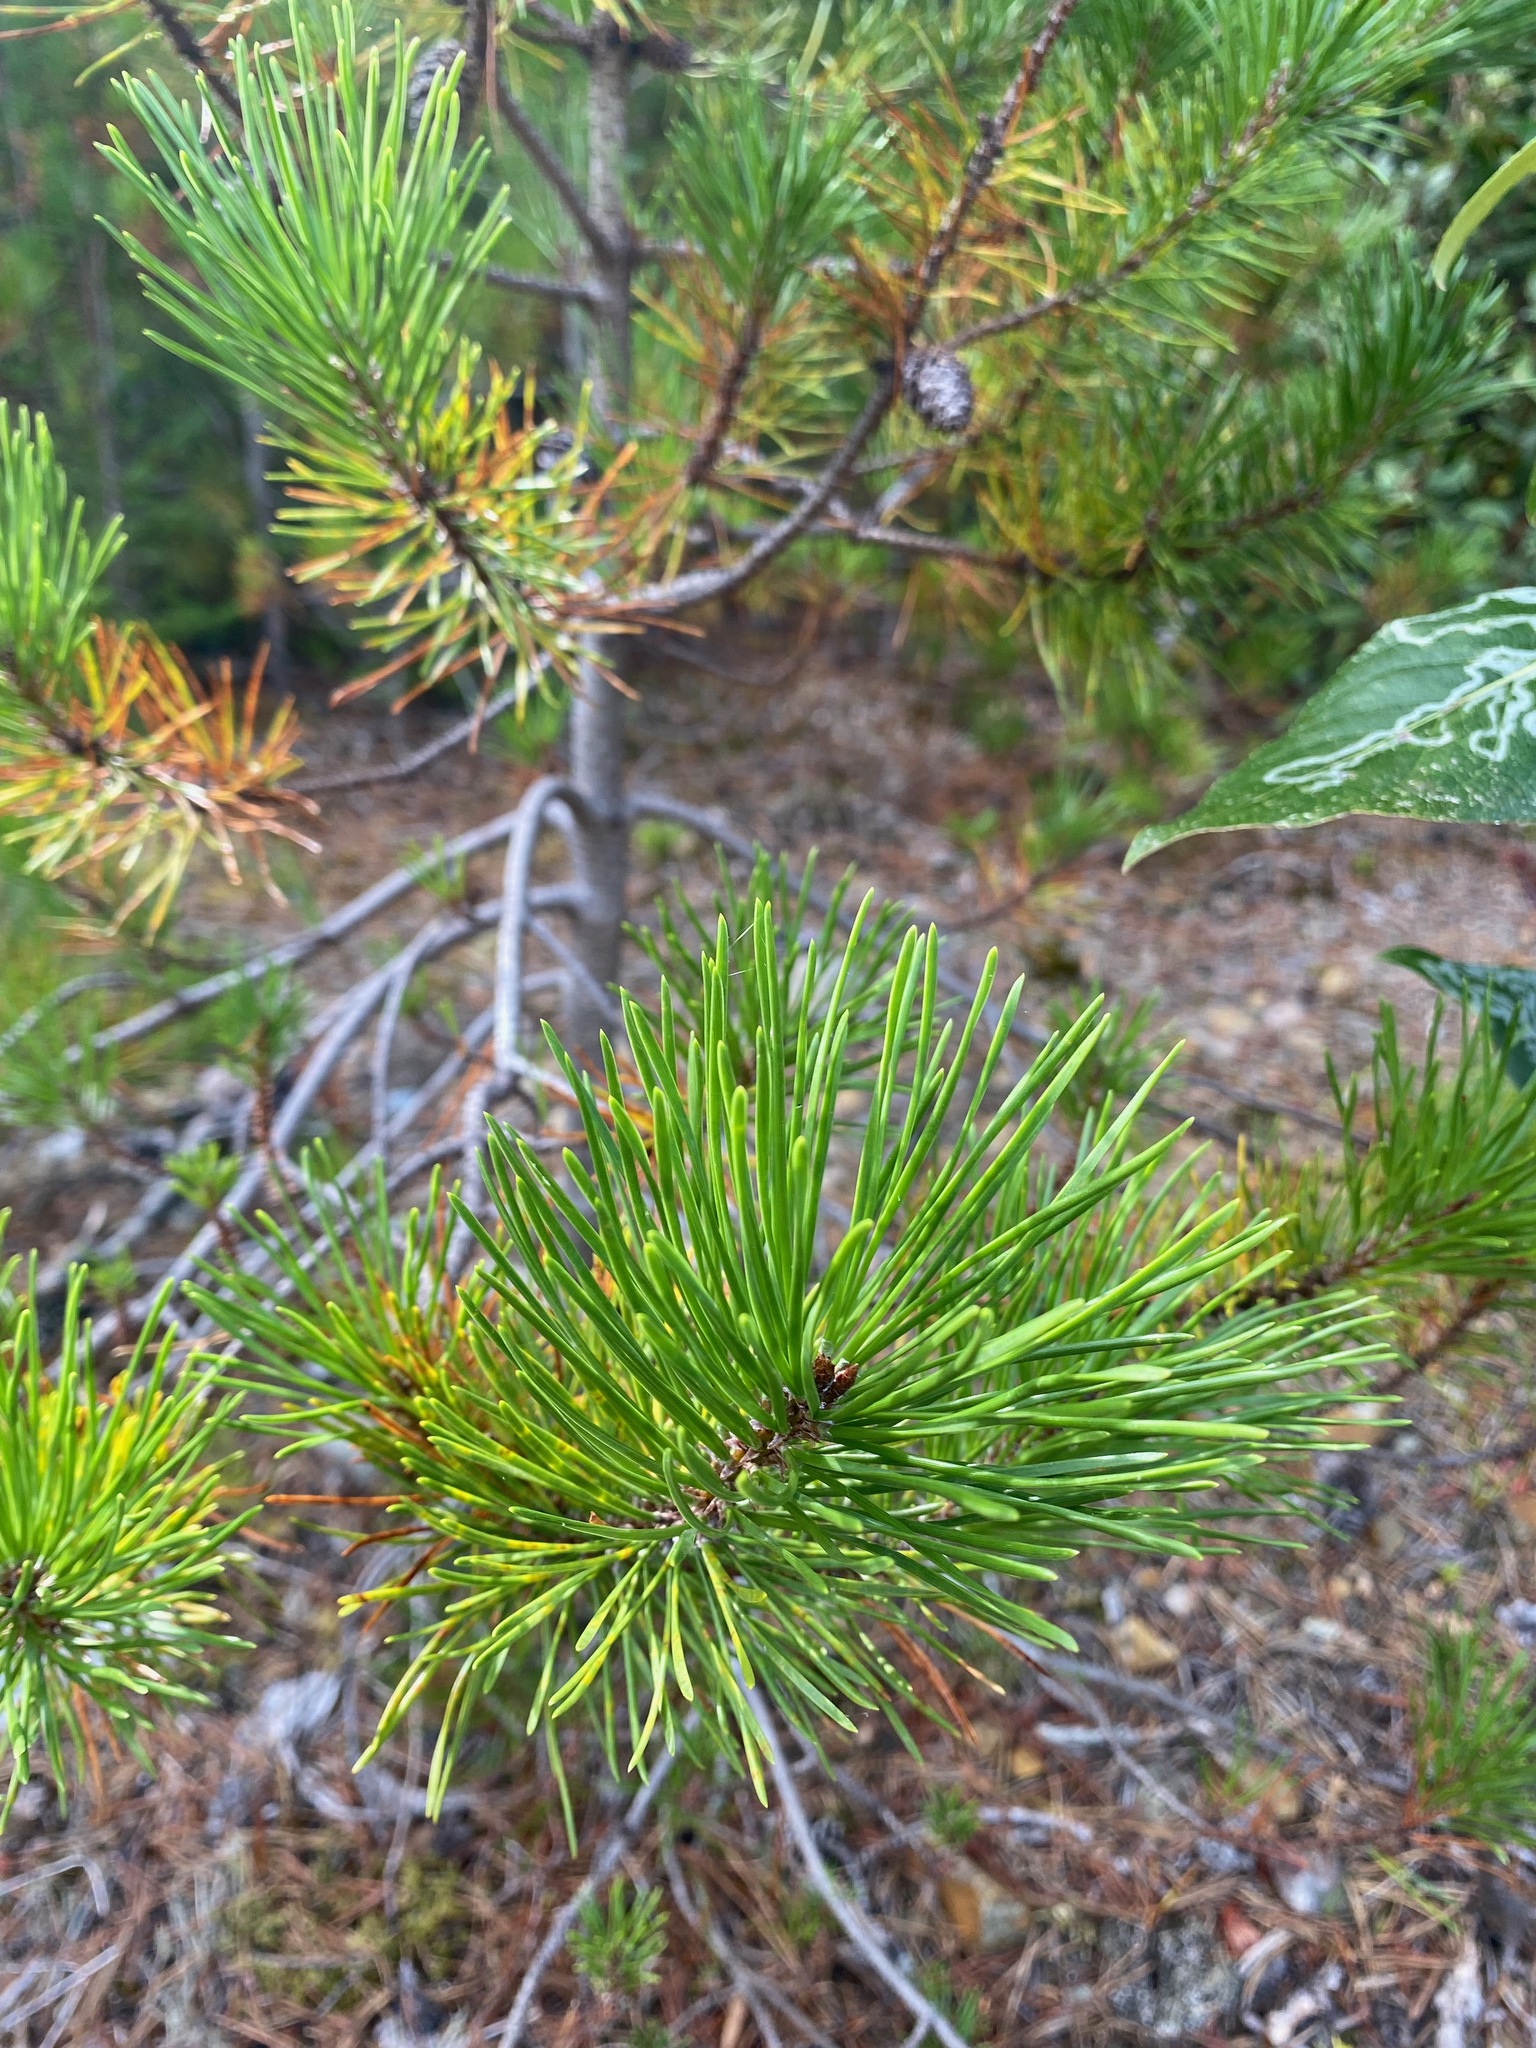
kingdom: Plantae
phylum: Tracheophyta
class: Pinopsida
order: Pinales
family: Pinaceae
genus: Pinus
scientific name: Pinus contorta
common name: Lodgepole pine
